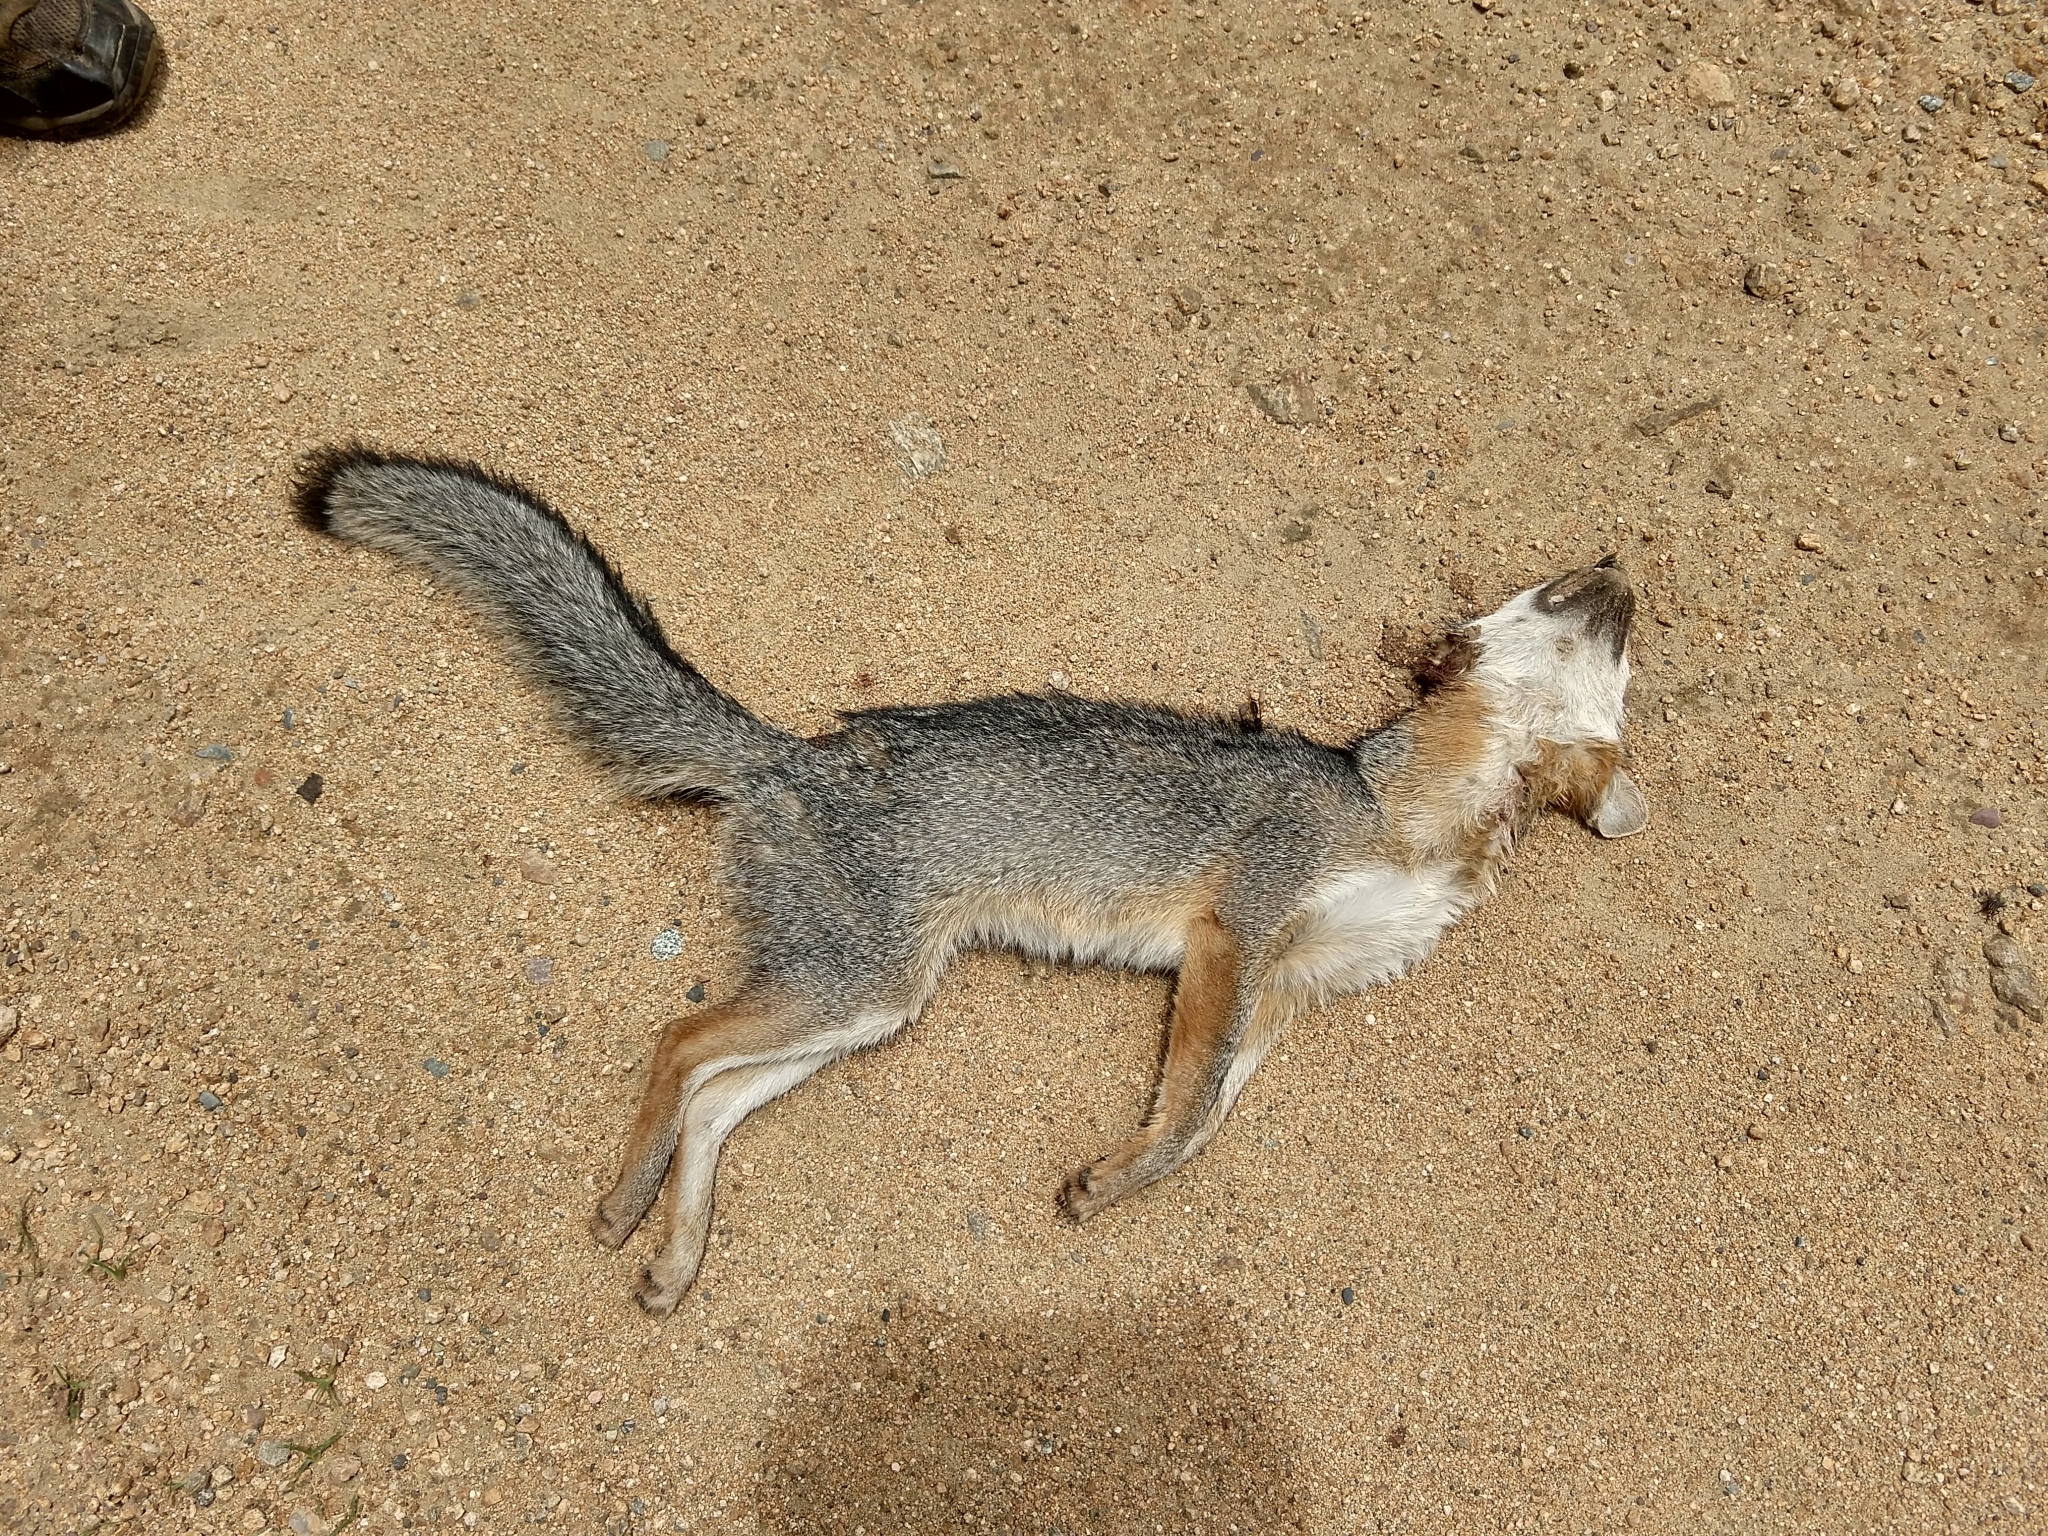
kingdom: Animalia
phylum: Chordata
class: Mammalia
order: Carnivora
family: Canidae
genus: Urocyon
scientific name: Urocyon cinereoargenteus
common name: Gray fox
